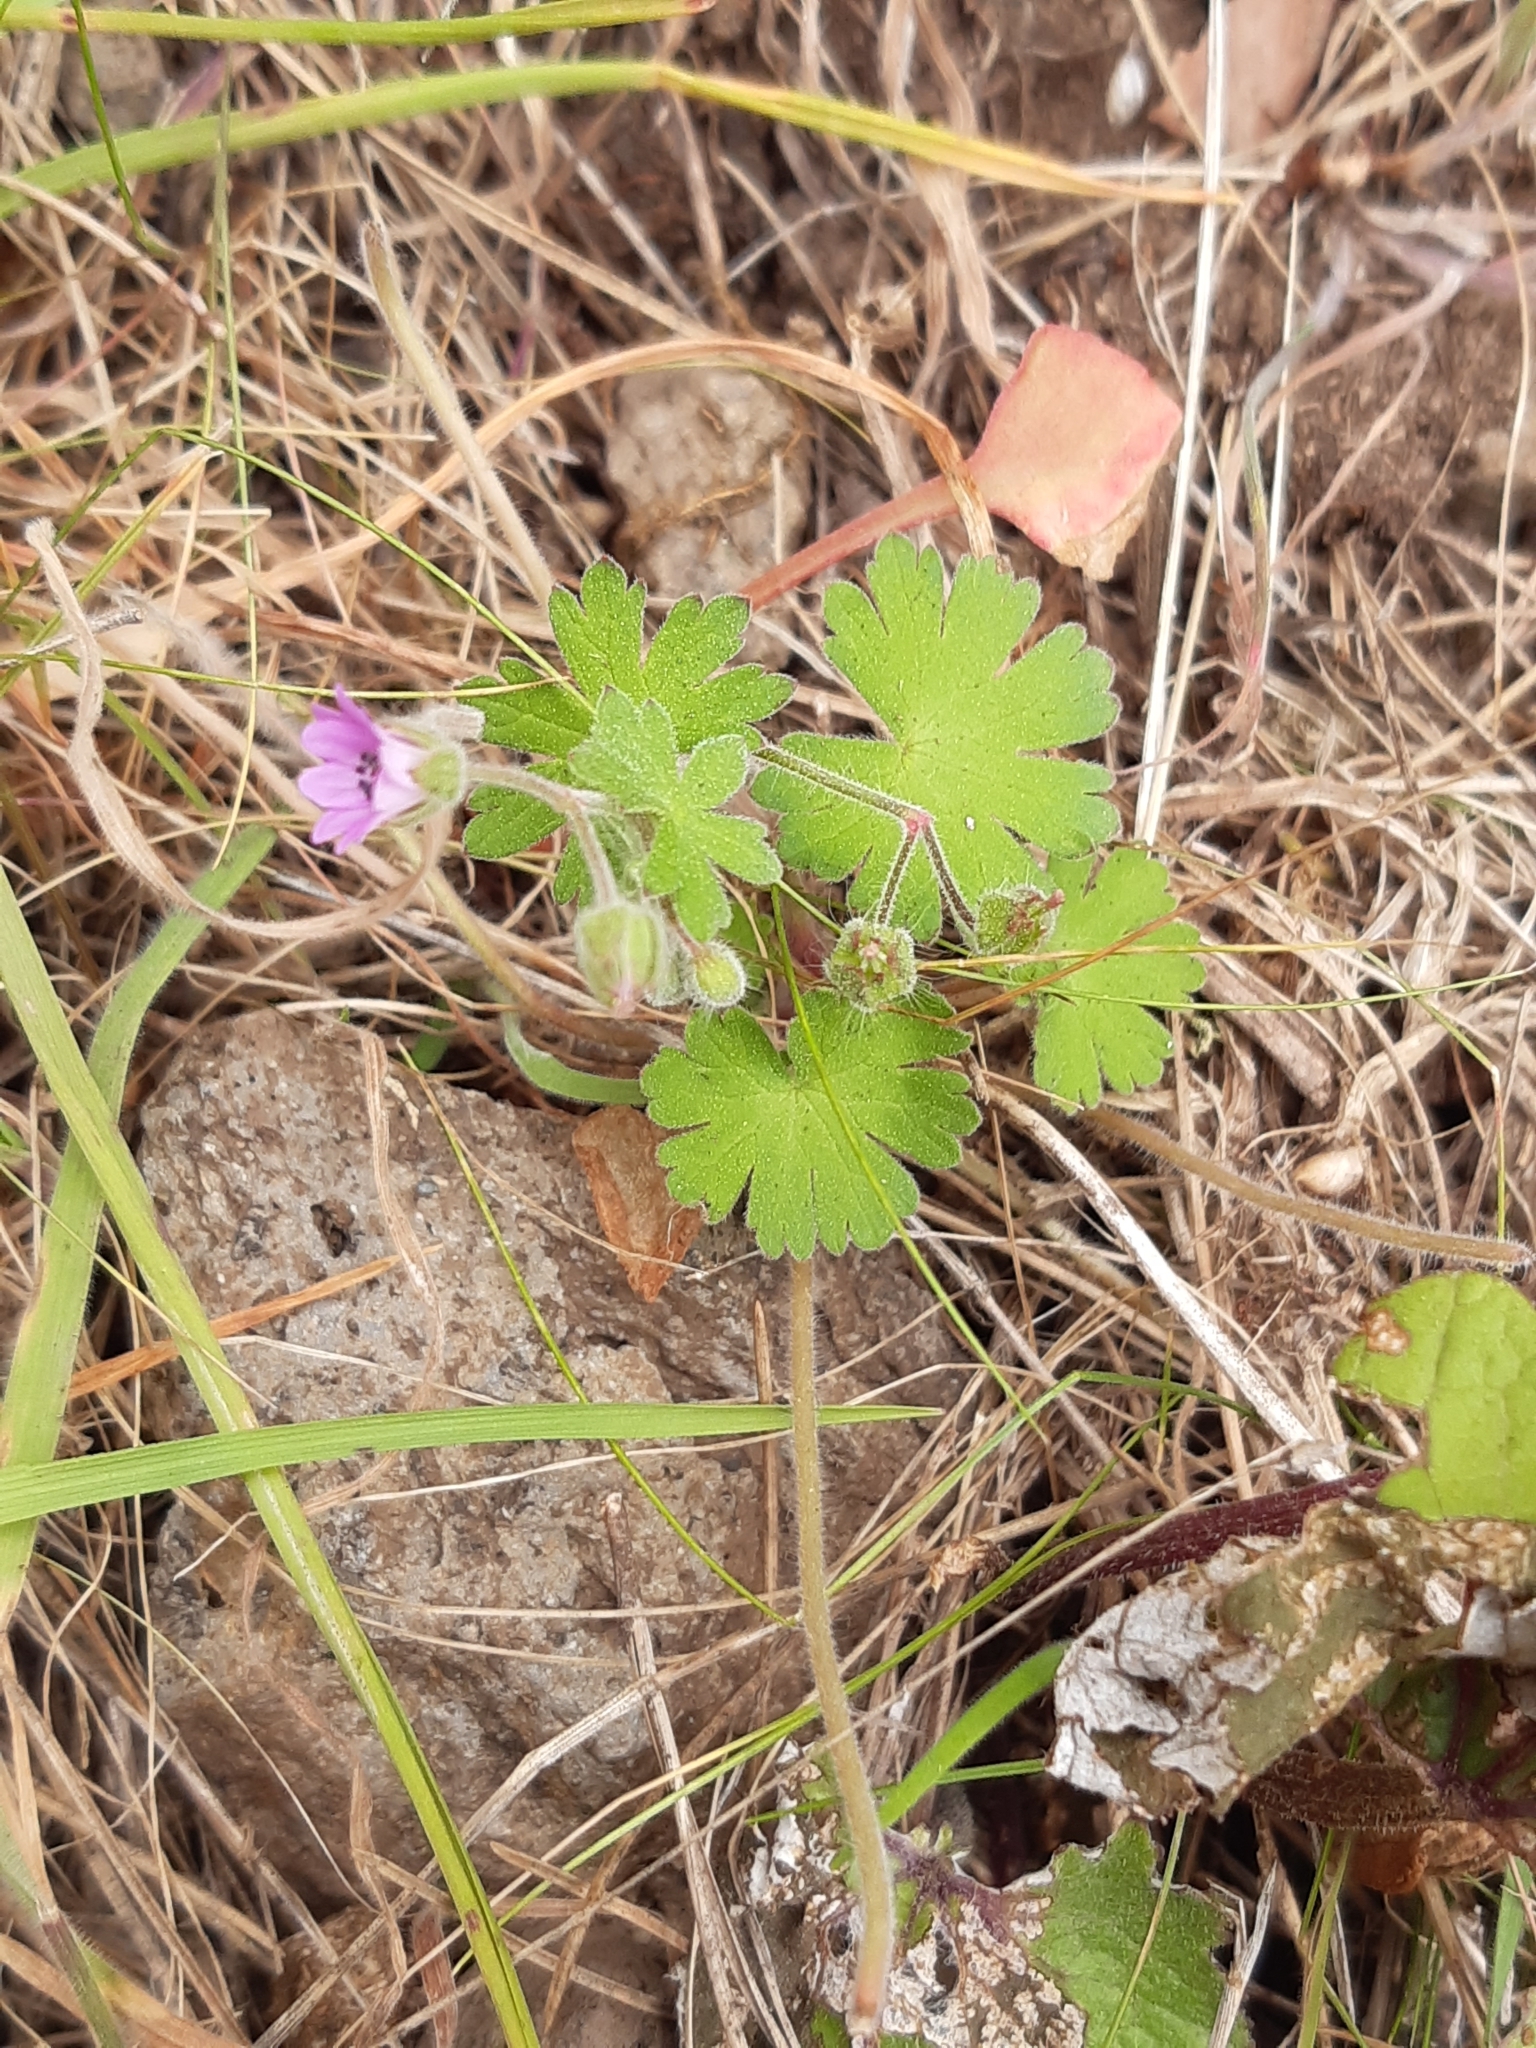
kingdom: Plantae
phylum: Tracheophyta
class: Magnoliopsida
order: Geraniales
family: Geraniaceae
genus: Geranium
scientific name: Geranium molle
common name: Dove's-foot crane's-bill
